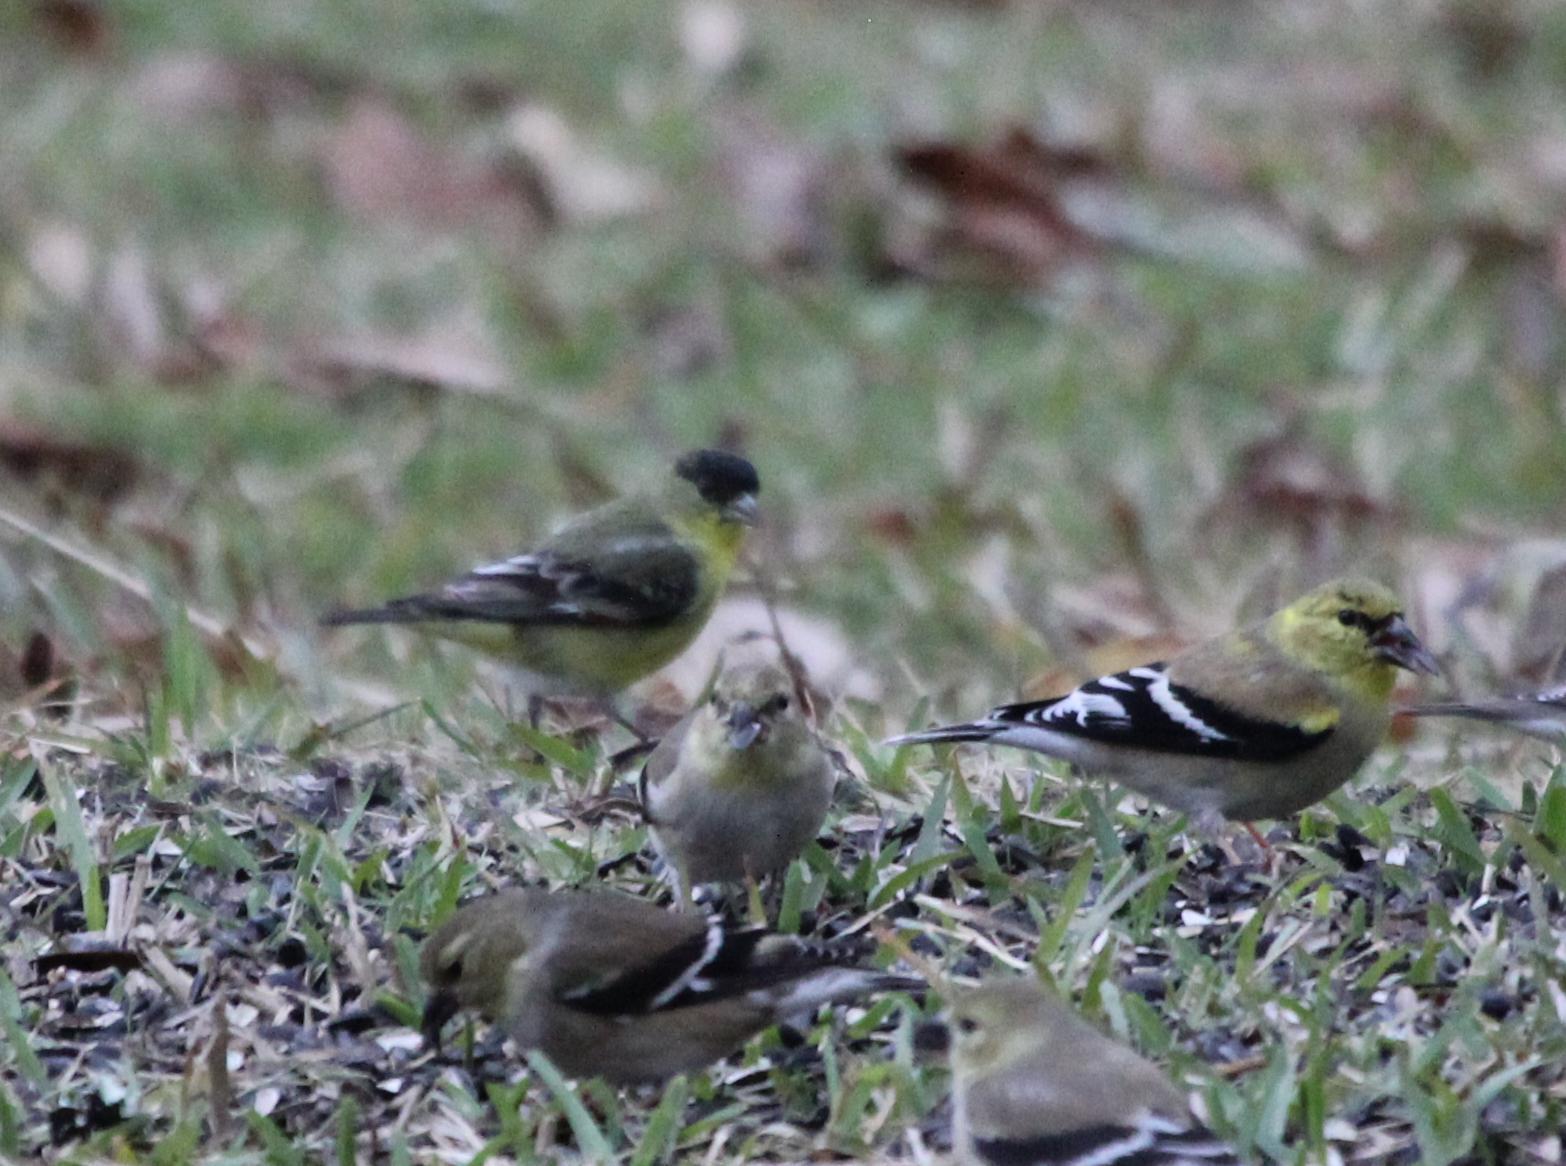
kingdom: Animalia
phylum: Chordata
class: Aves
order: Passeriformes
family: Fringillidae
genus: Spinus
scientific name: Spinus psaltria
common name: Lesser goldfinch
